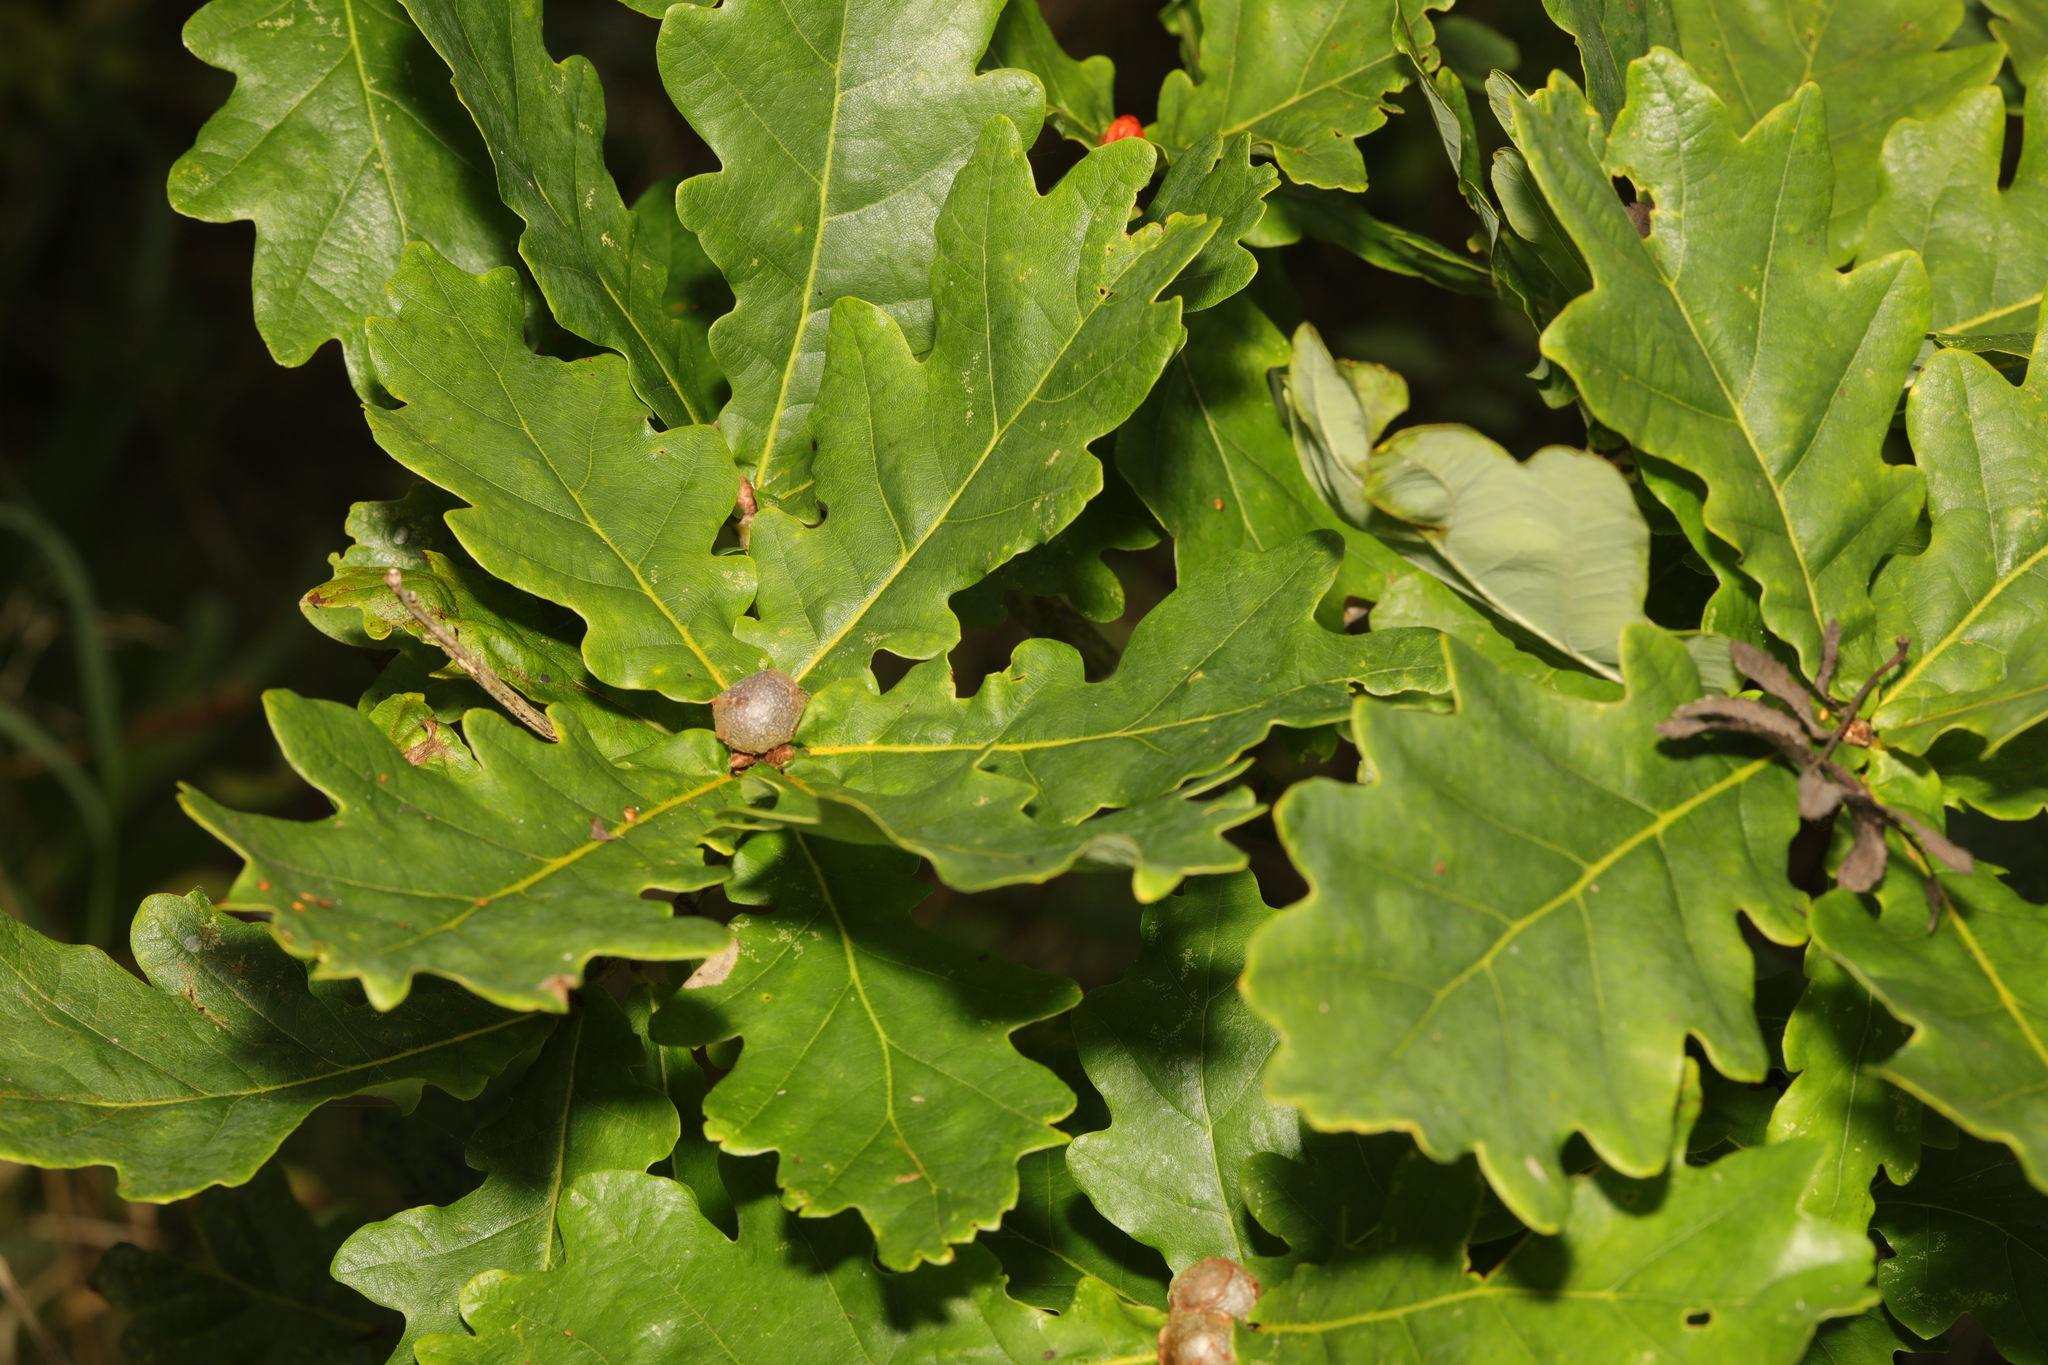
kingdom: Plantae
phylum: Tracheophyta
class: Magnoliopsida
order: Fagales
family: Fagaceae
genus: Quercus
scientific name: Quercus robur
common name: Pedunculate oak
